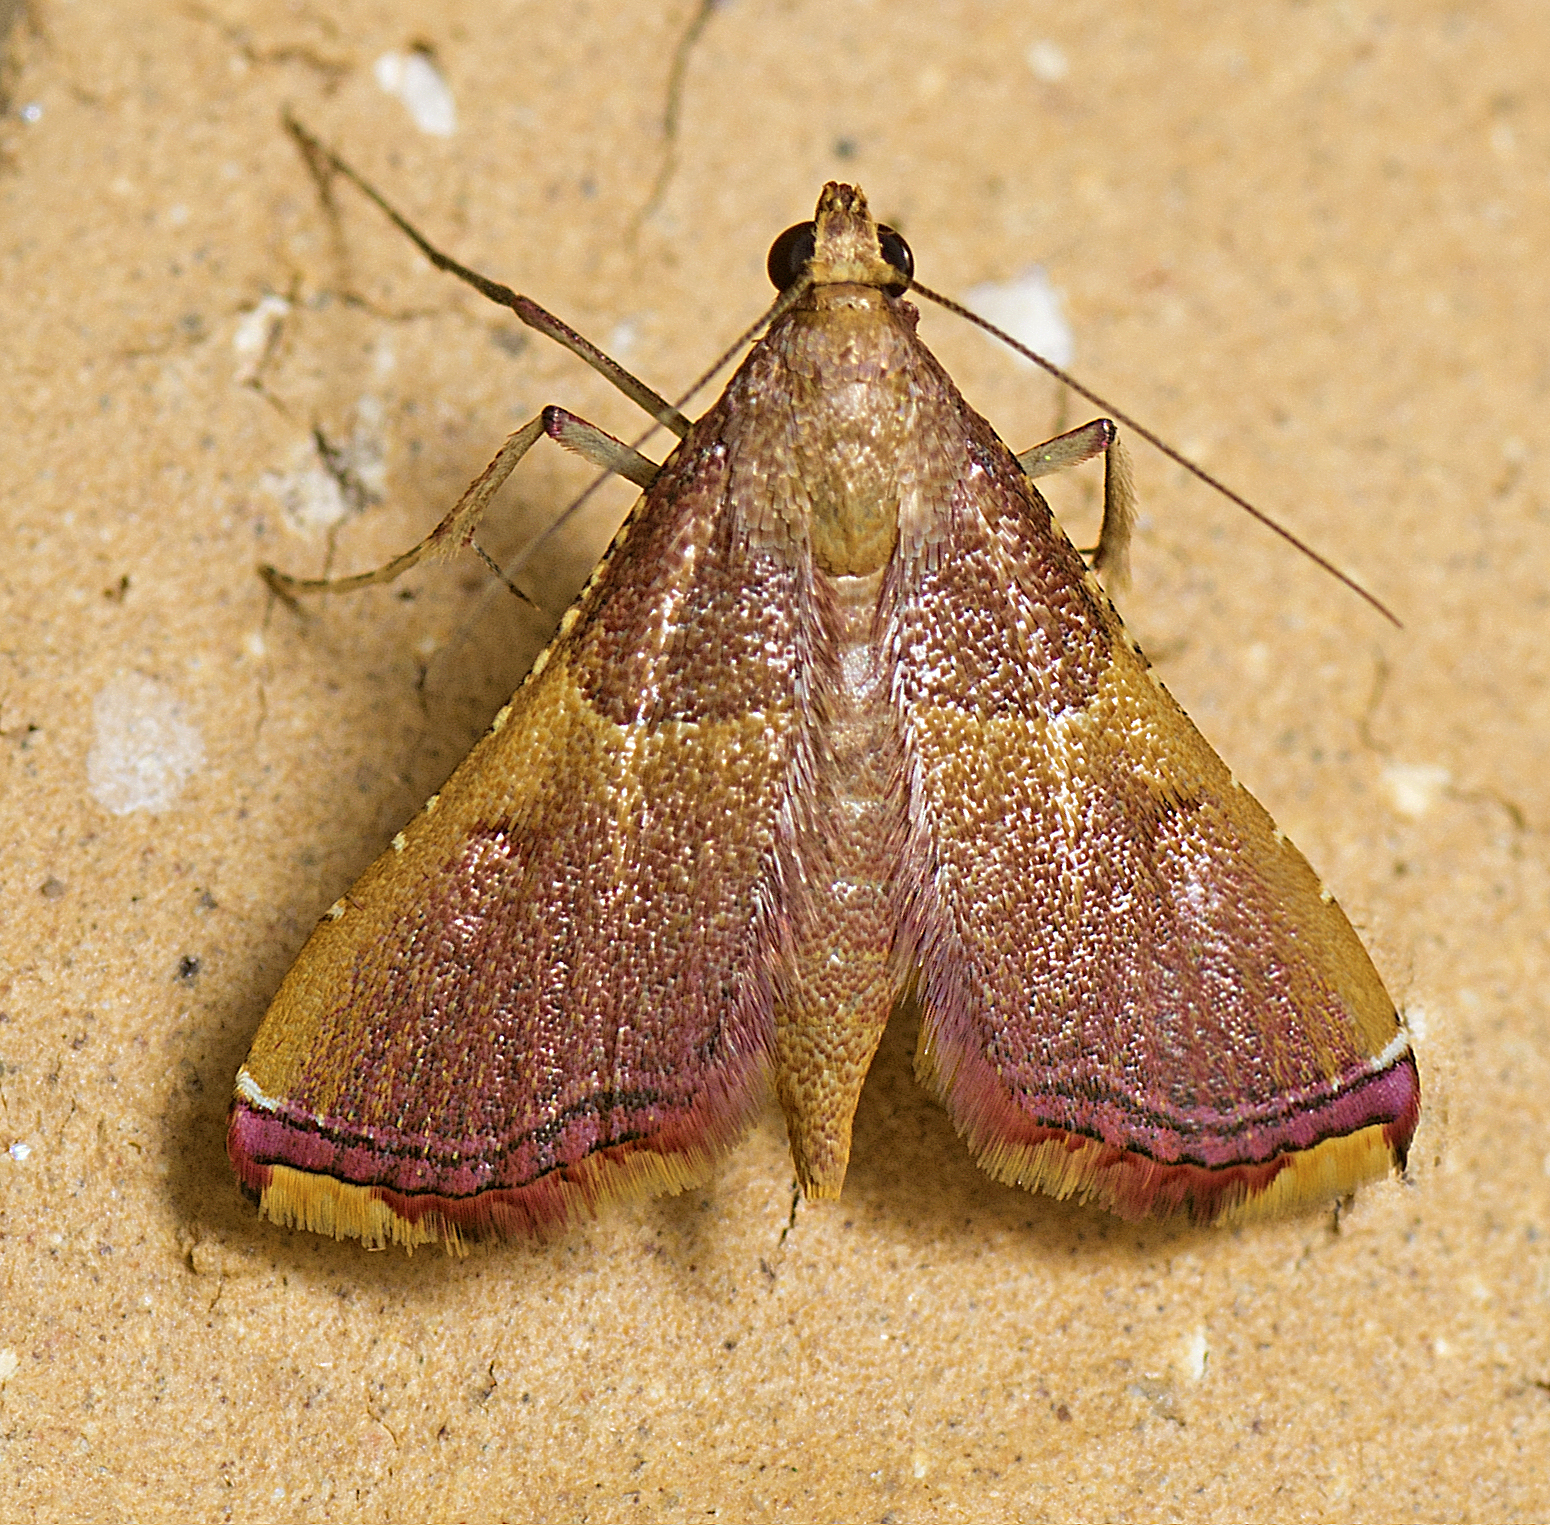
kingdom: Animalia
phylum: Arthropoda
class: Insecta
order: Lepidoptera
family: Pyralidae
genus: Endotricha
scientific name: Endotricha mesenterialis
